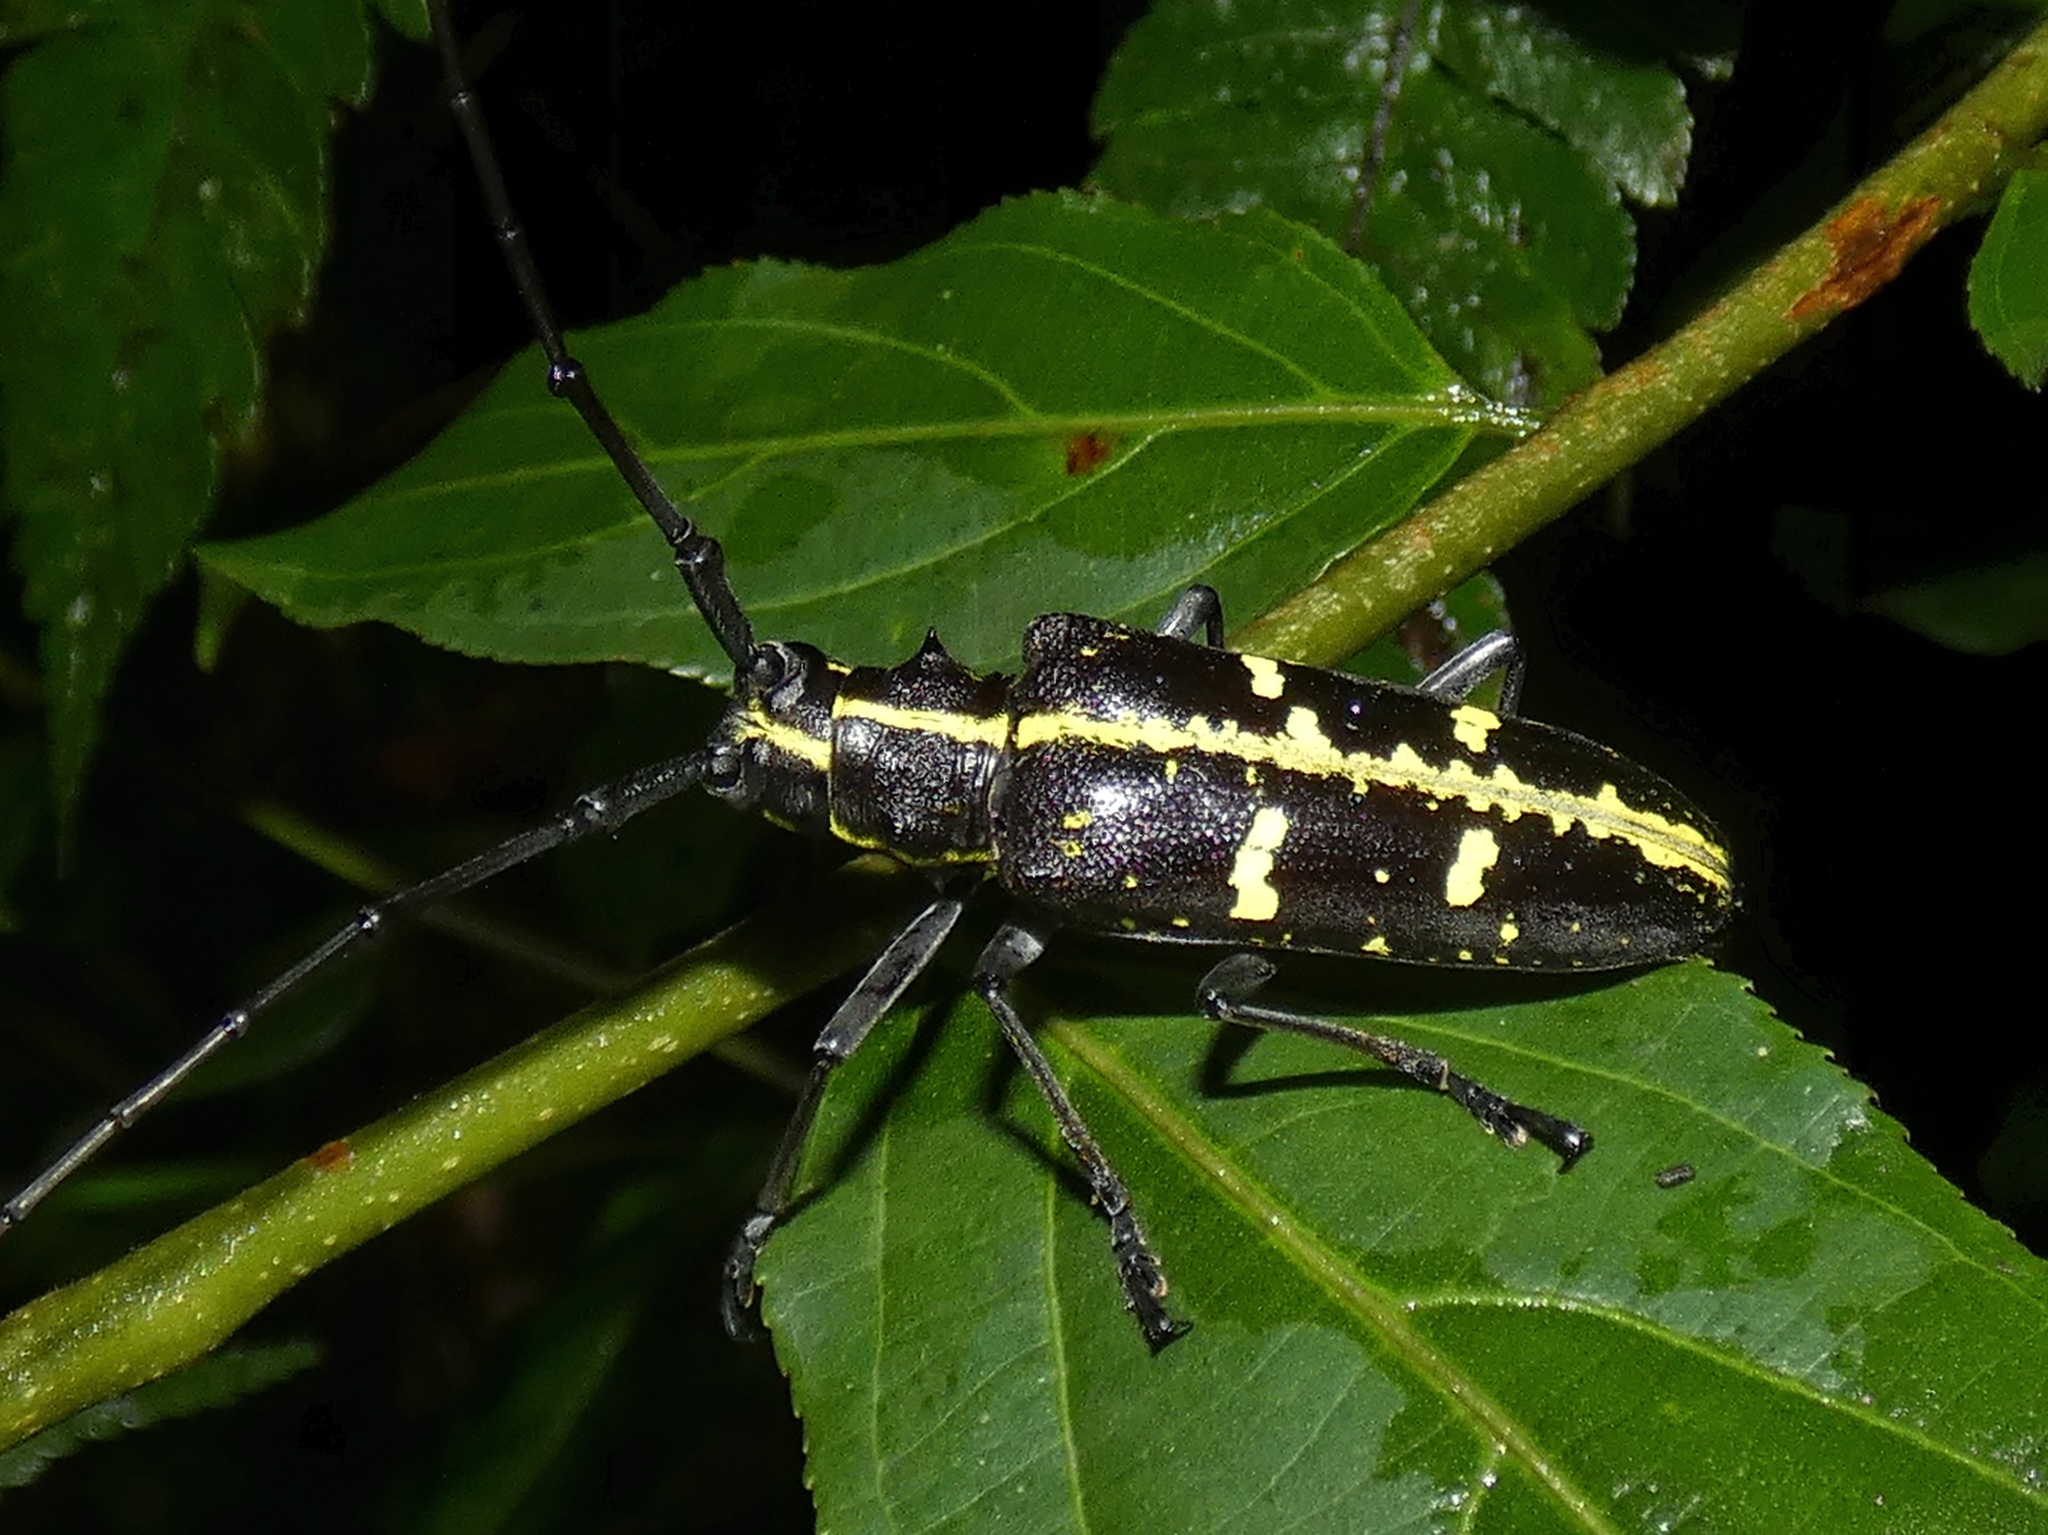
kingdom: Animalia
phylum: Arthropoda
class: Insecta
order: Coleoptera
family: Cerambycidae
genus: Taeniotes
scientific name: Taeniotes praeclarus
